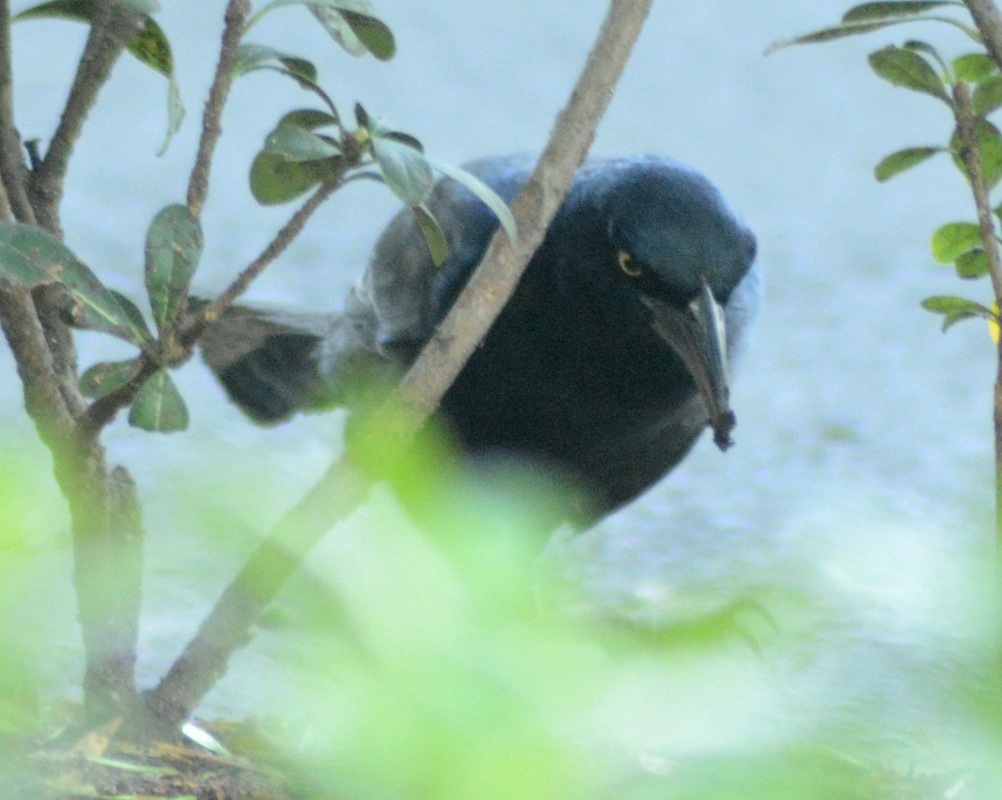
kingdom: Animalia
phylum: Chordata
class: Aves
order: Passeriformes
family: Icteridae
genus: Quiscalus
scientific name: Quiscalus mexicanus
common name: Great-tailed grackle
